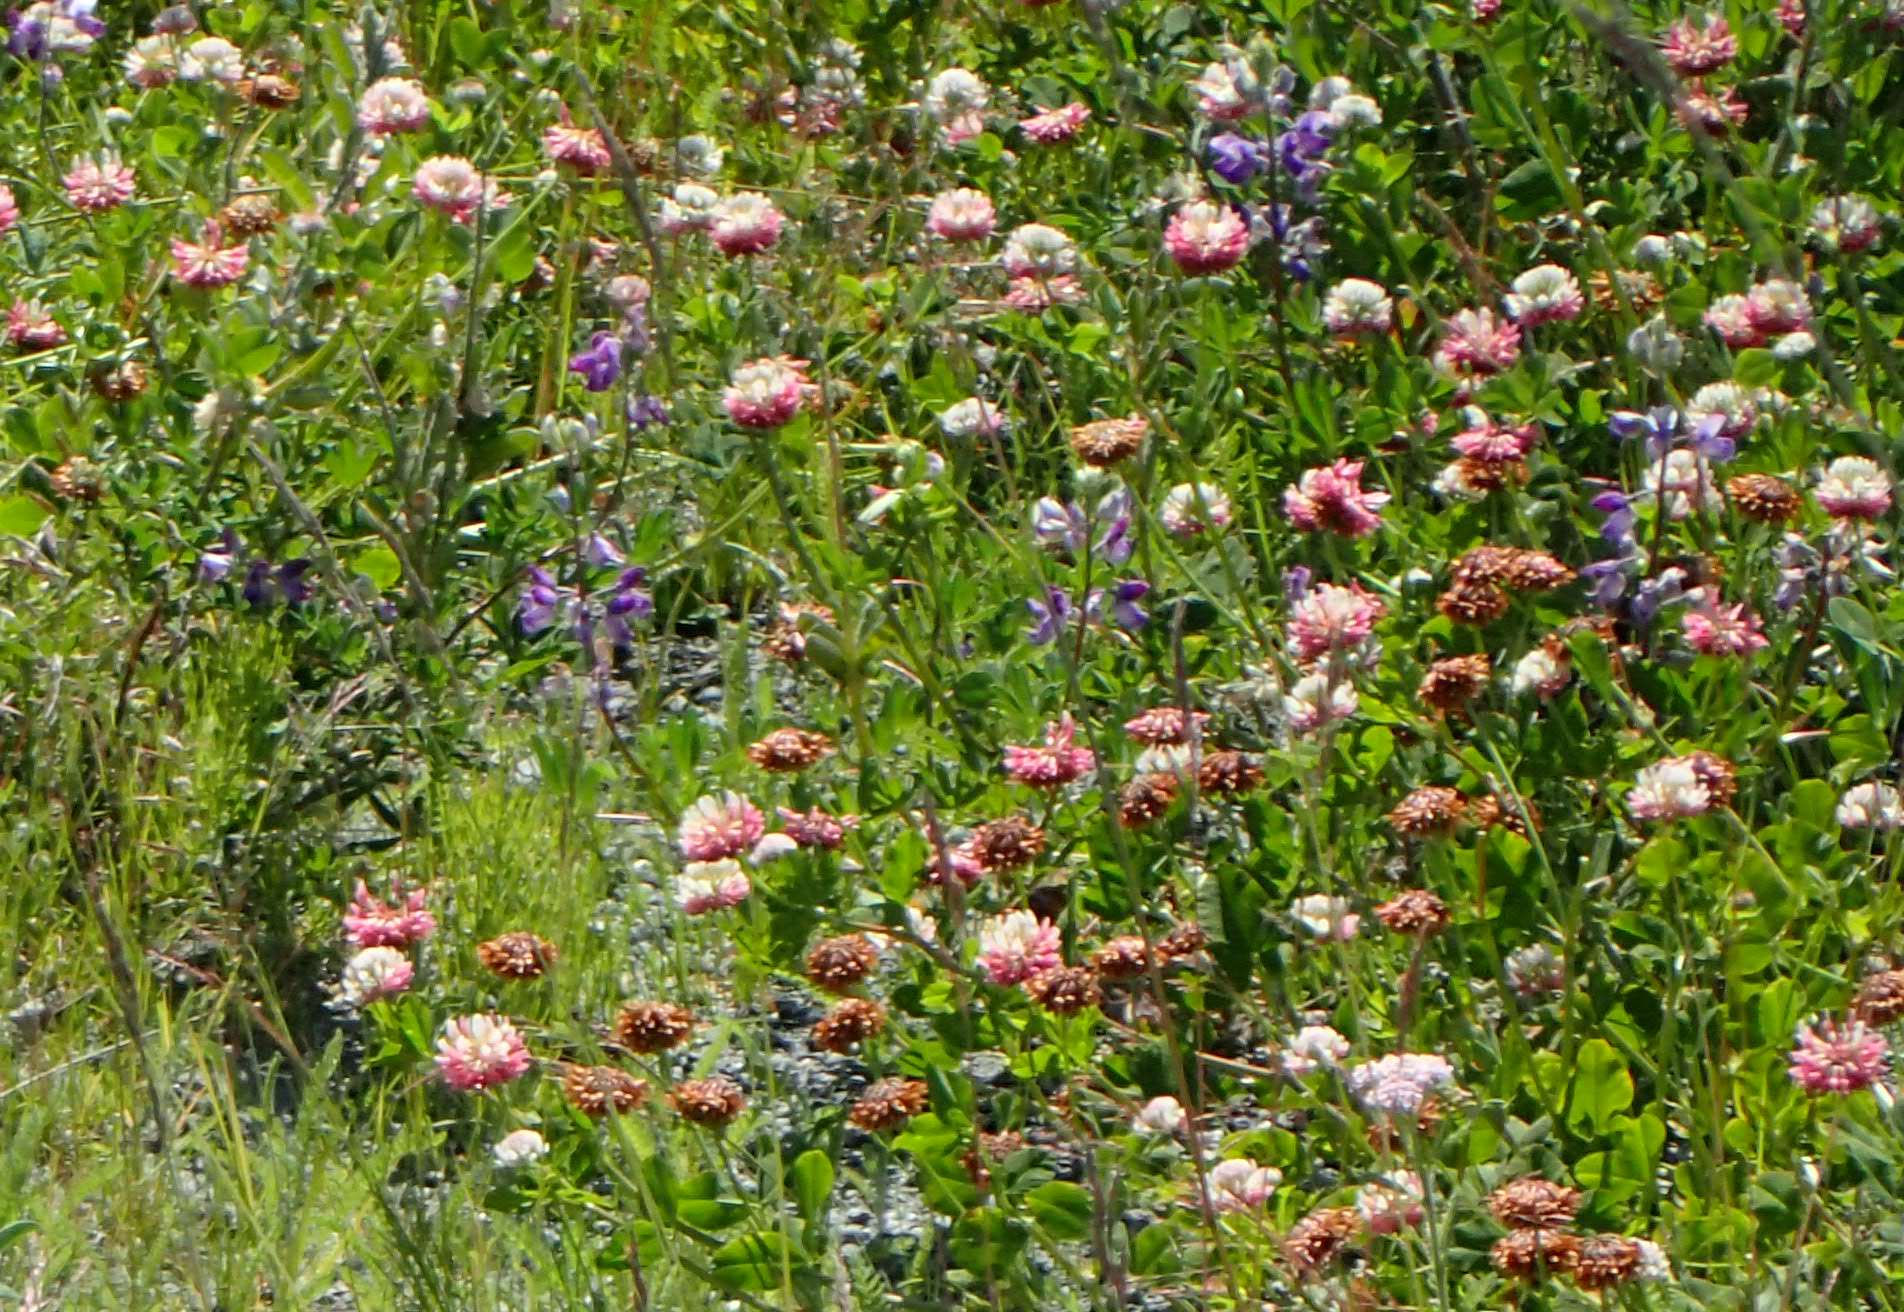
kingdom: Plantae
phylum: Tracheophyta
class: Magnoliopsida
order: Fabales
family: Fabaceae
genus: Trifolium
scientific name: Trifolium hybridum
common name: Alsike clover
